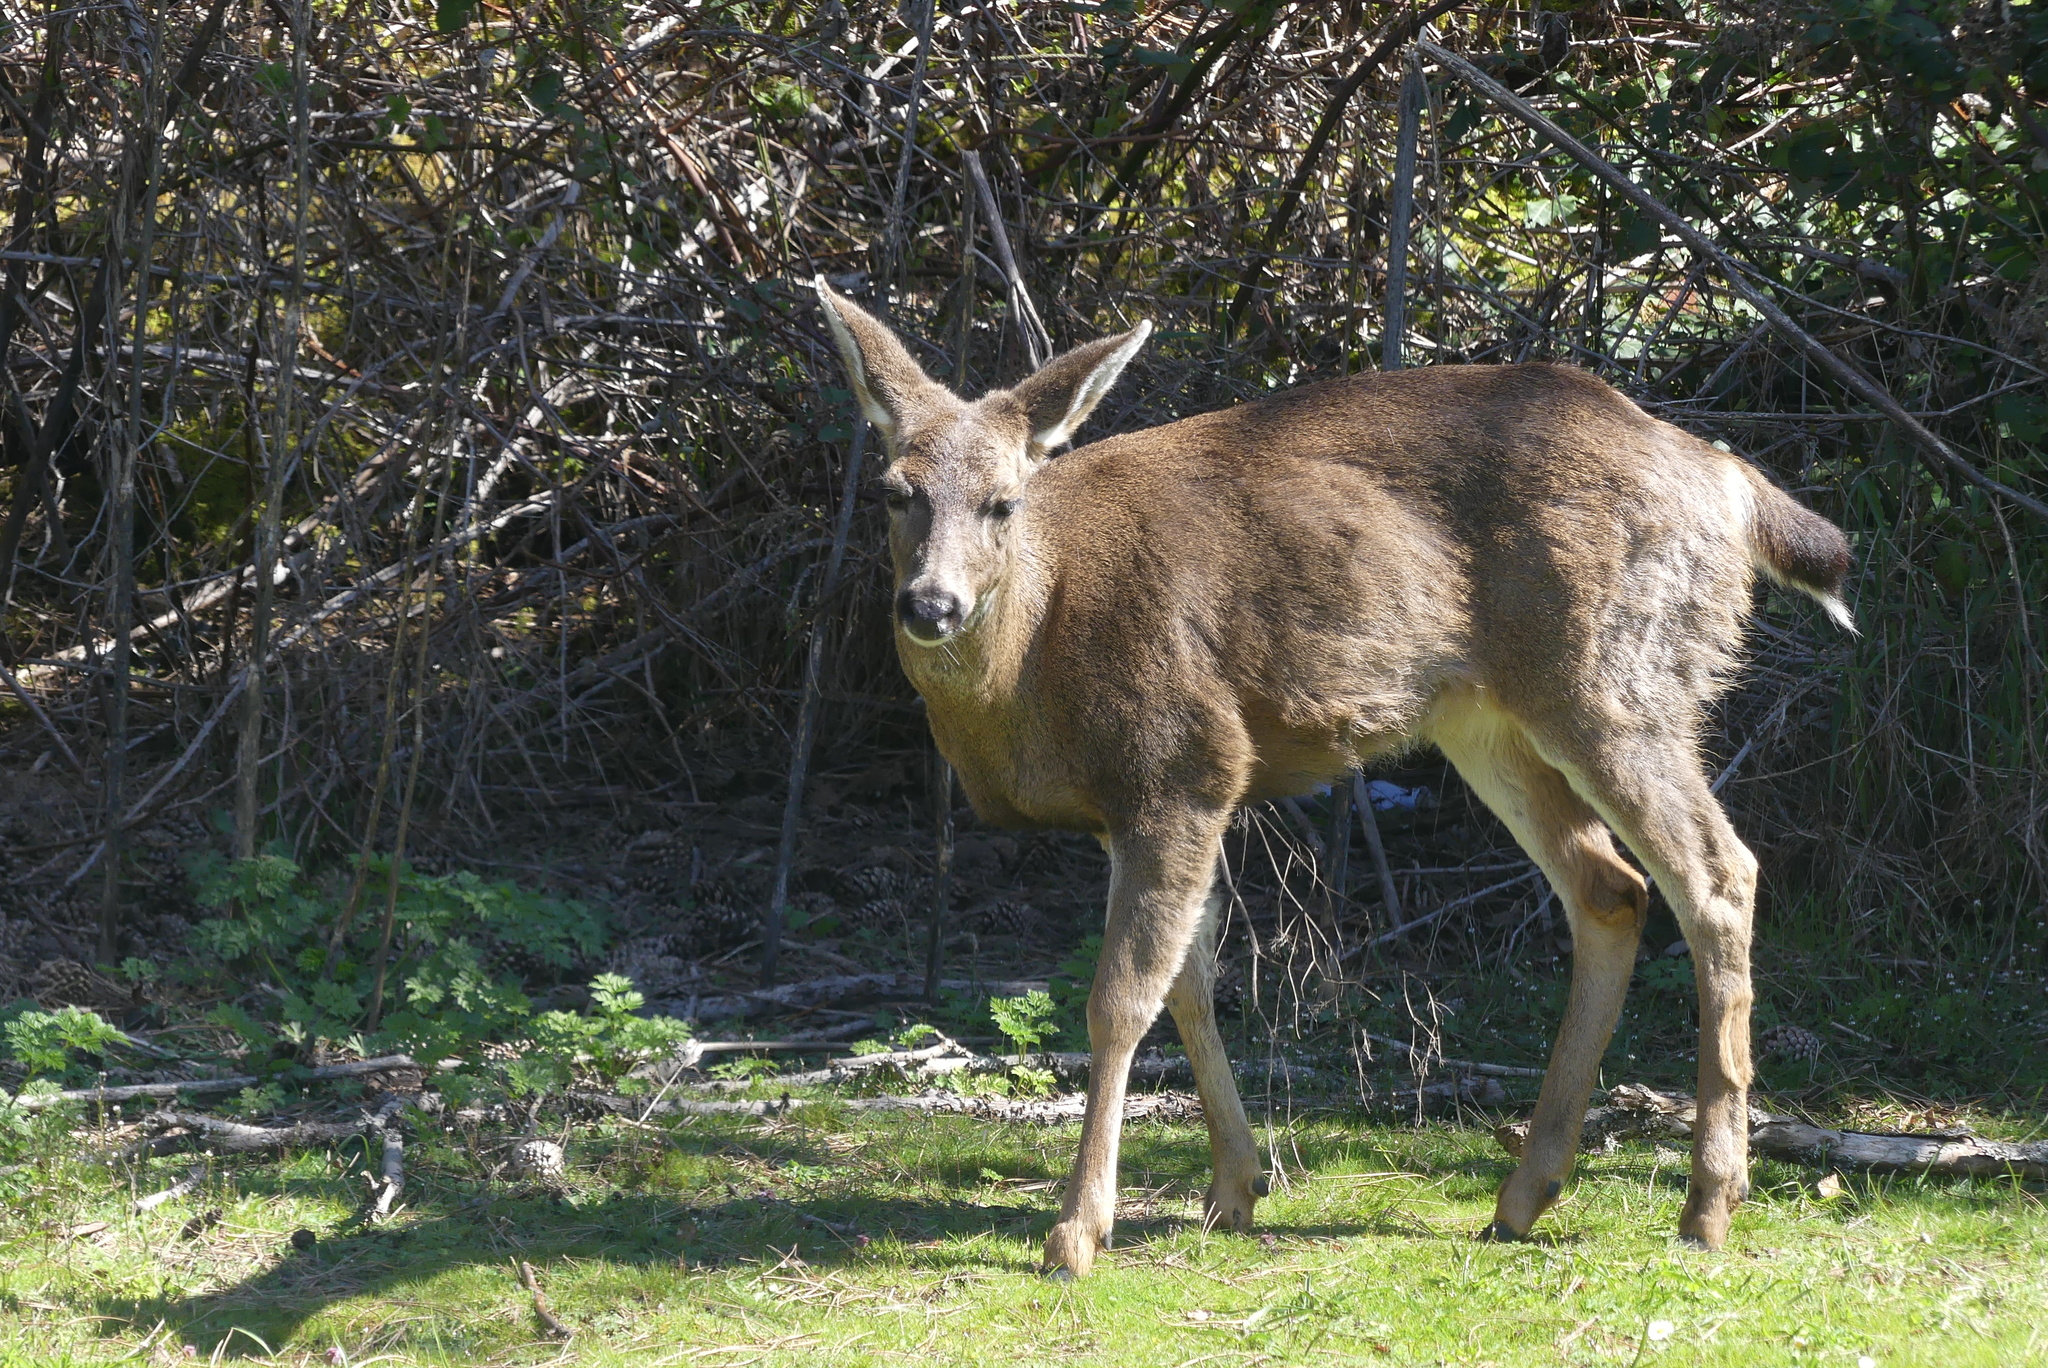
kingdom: Animalia
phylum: Chordata
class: Mammalia
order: Artiodactyla
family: Cervidae
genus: Odocoileus
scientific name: Odocoileus hemionus
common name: Mule deer
